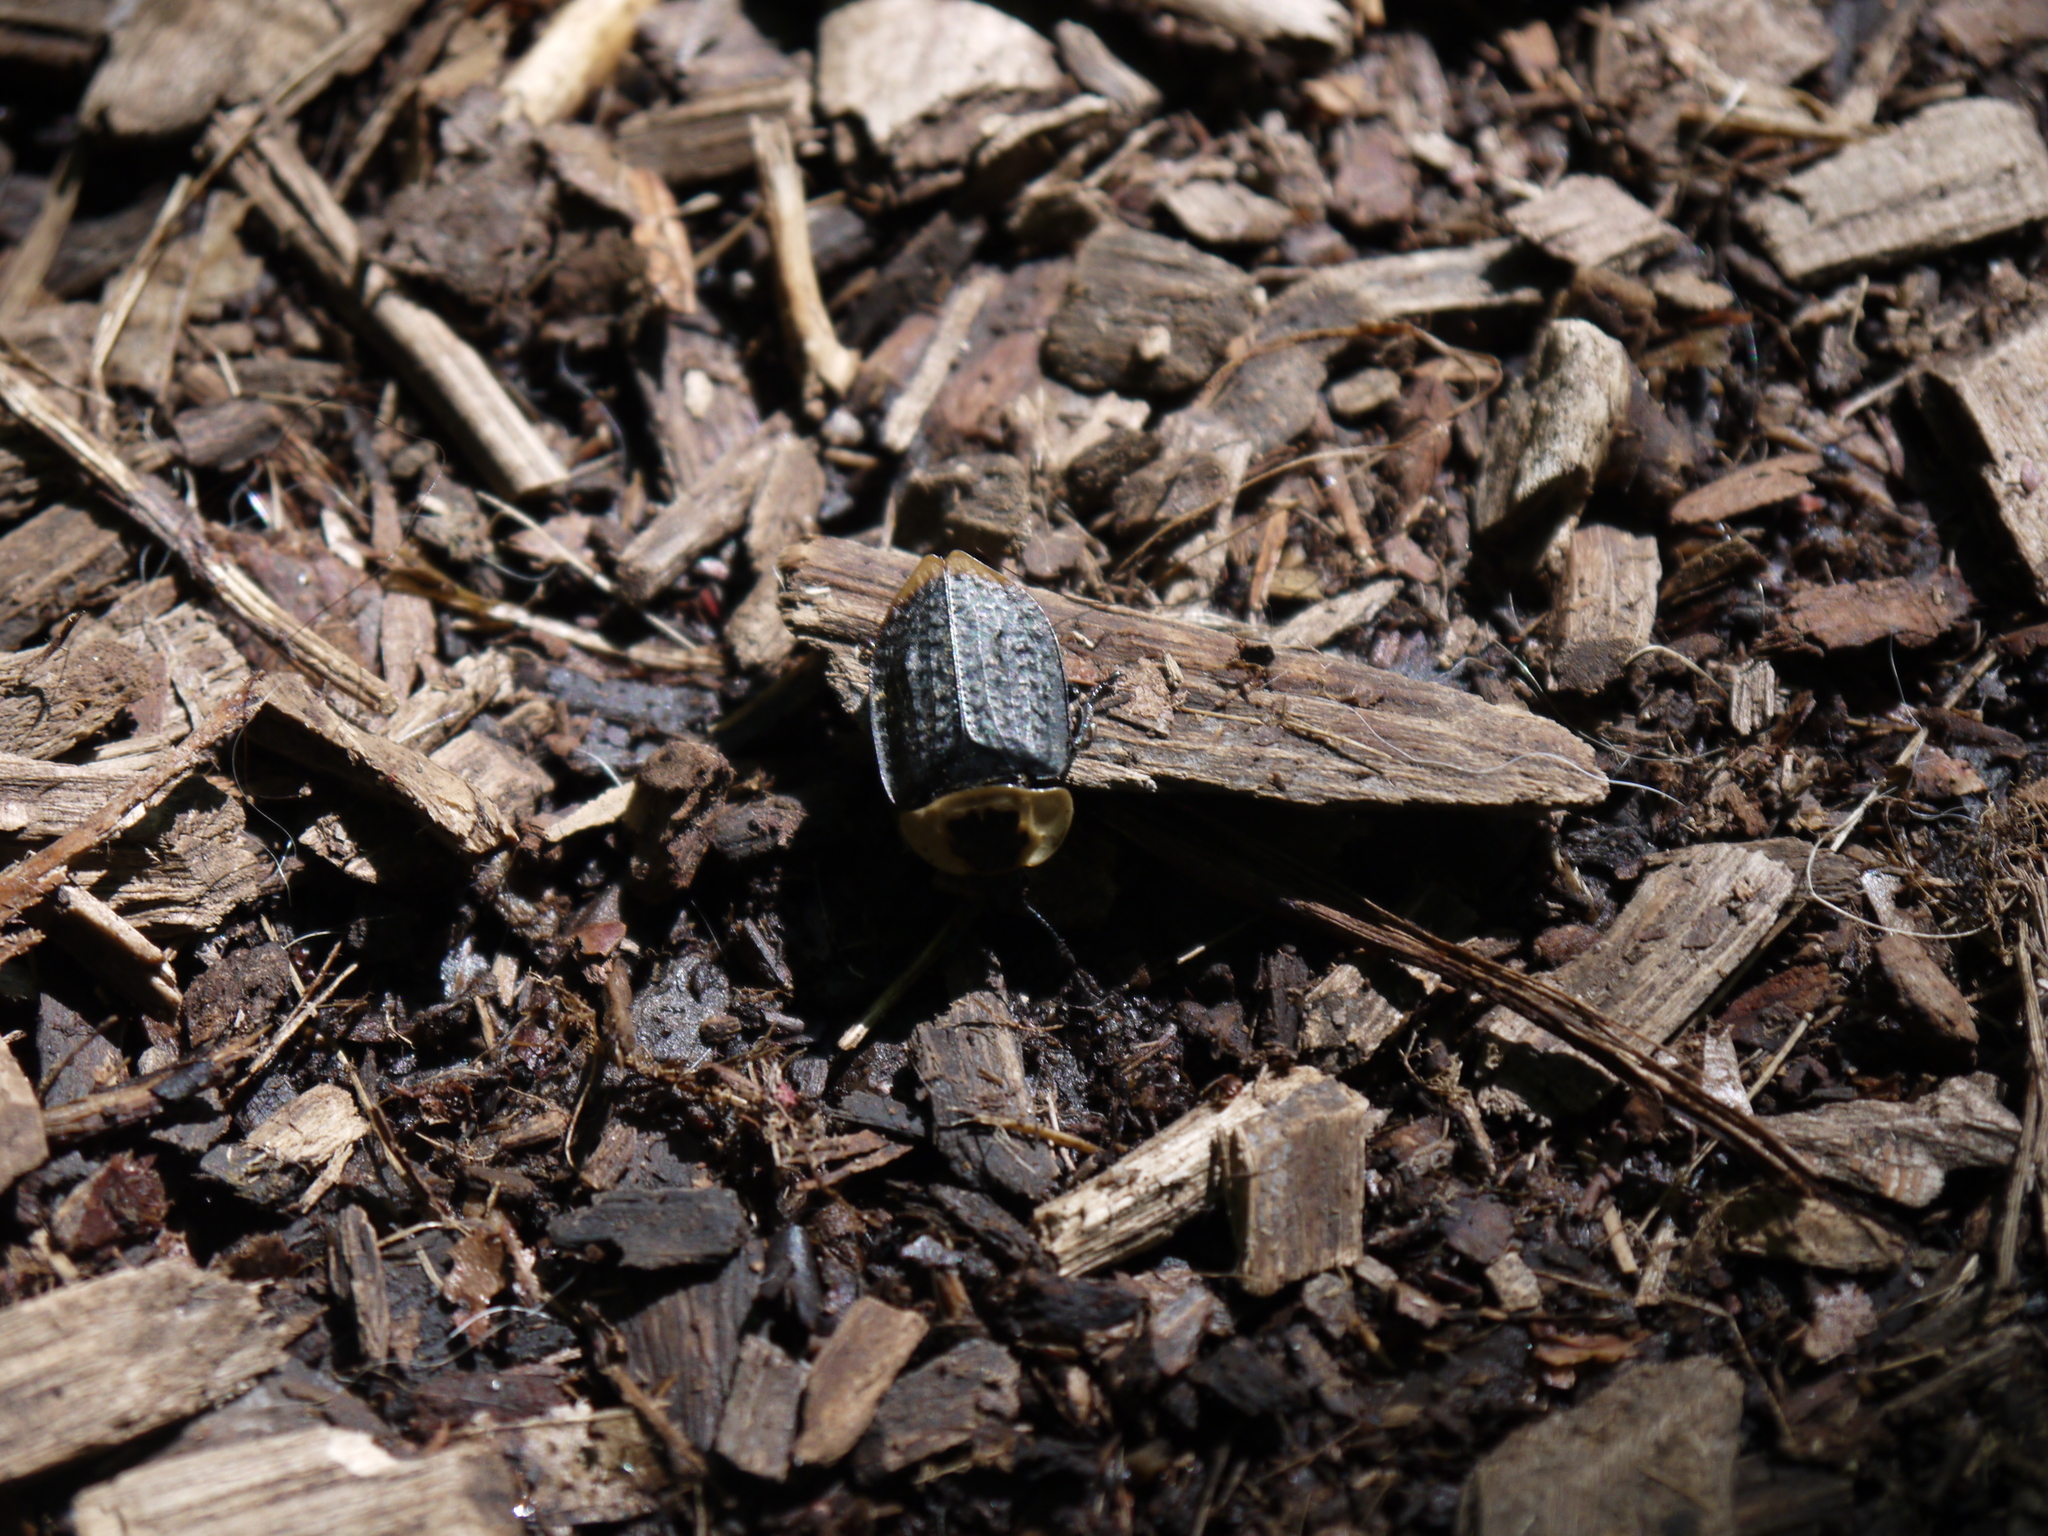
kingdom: Animalia
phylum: Arthropoda
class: Insecta
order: Coleoptera
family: Staphylinidae
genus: Necrophila
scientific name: Necrophila americana
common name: American carrion beetle
